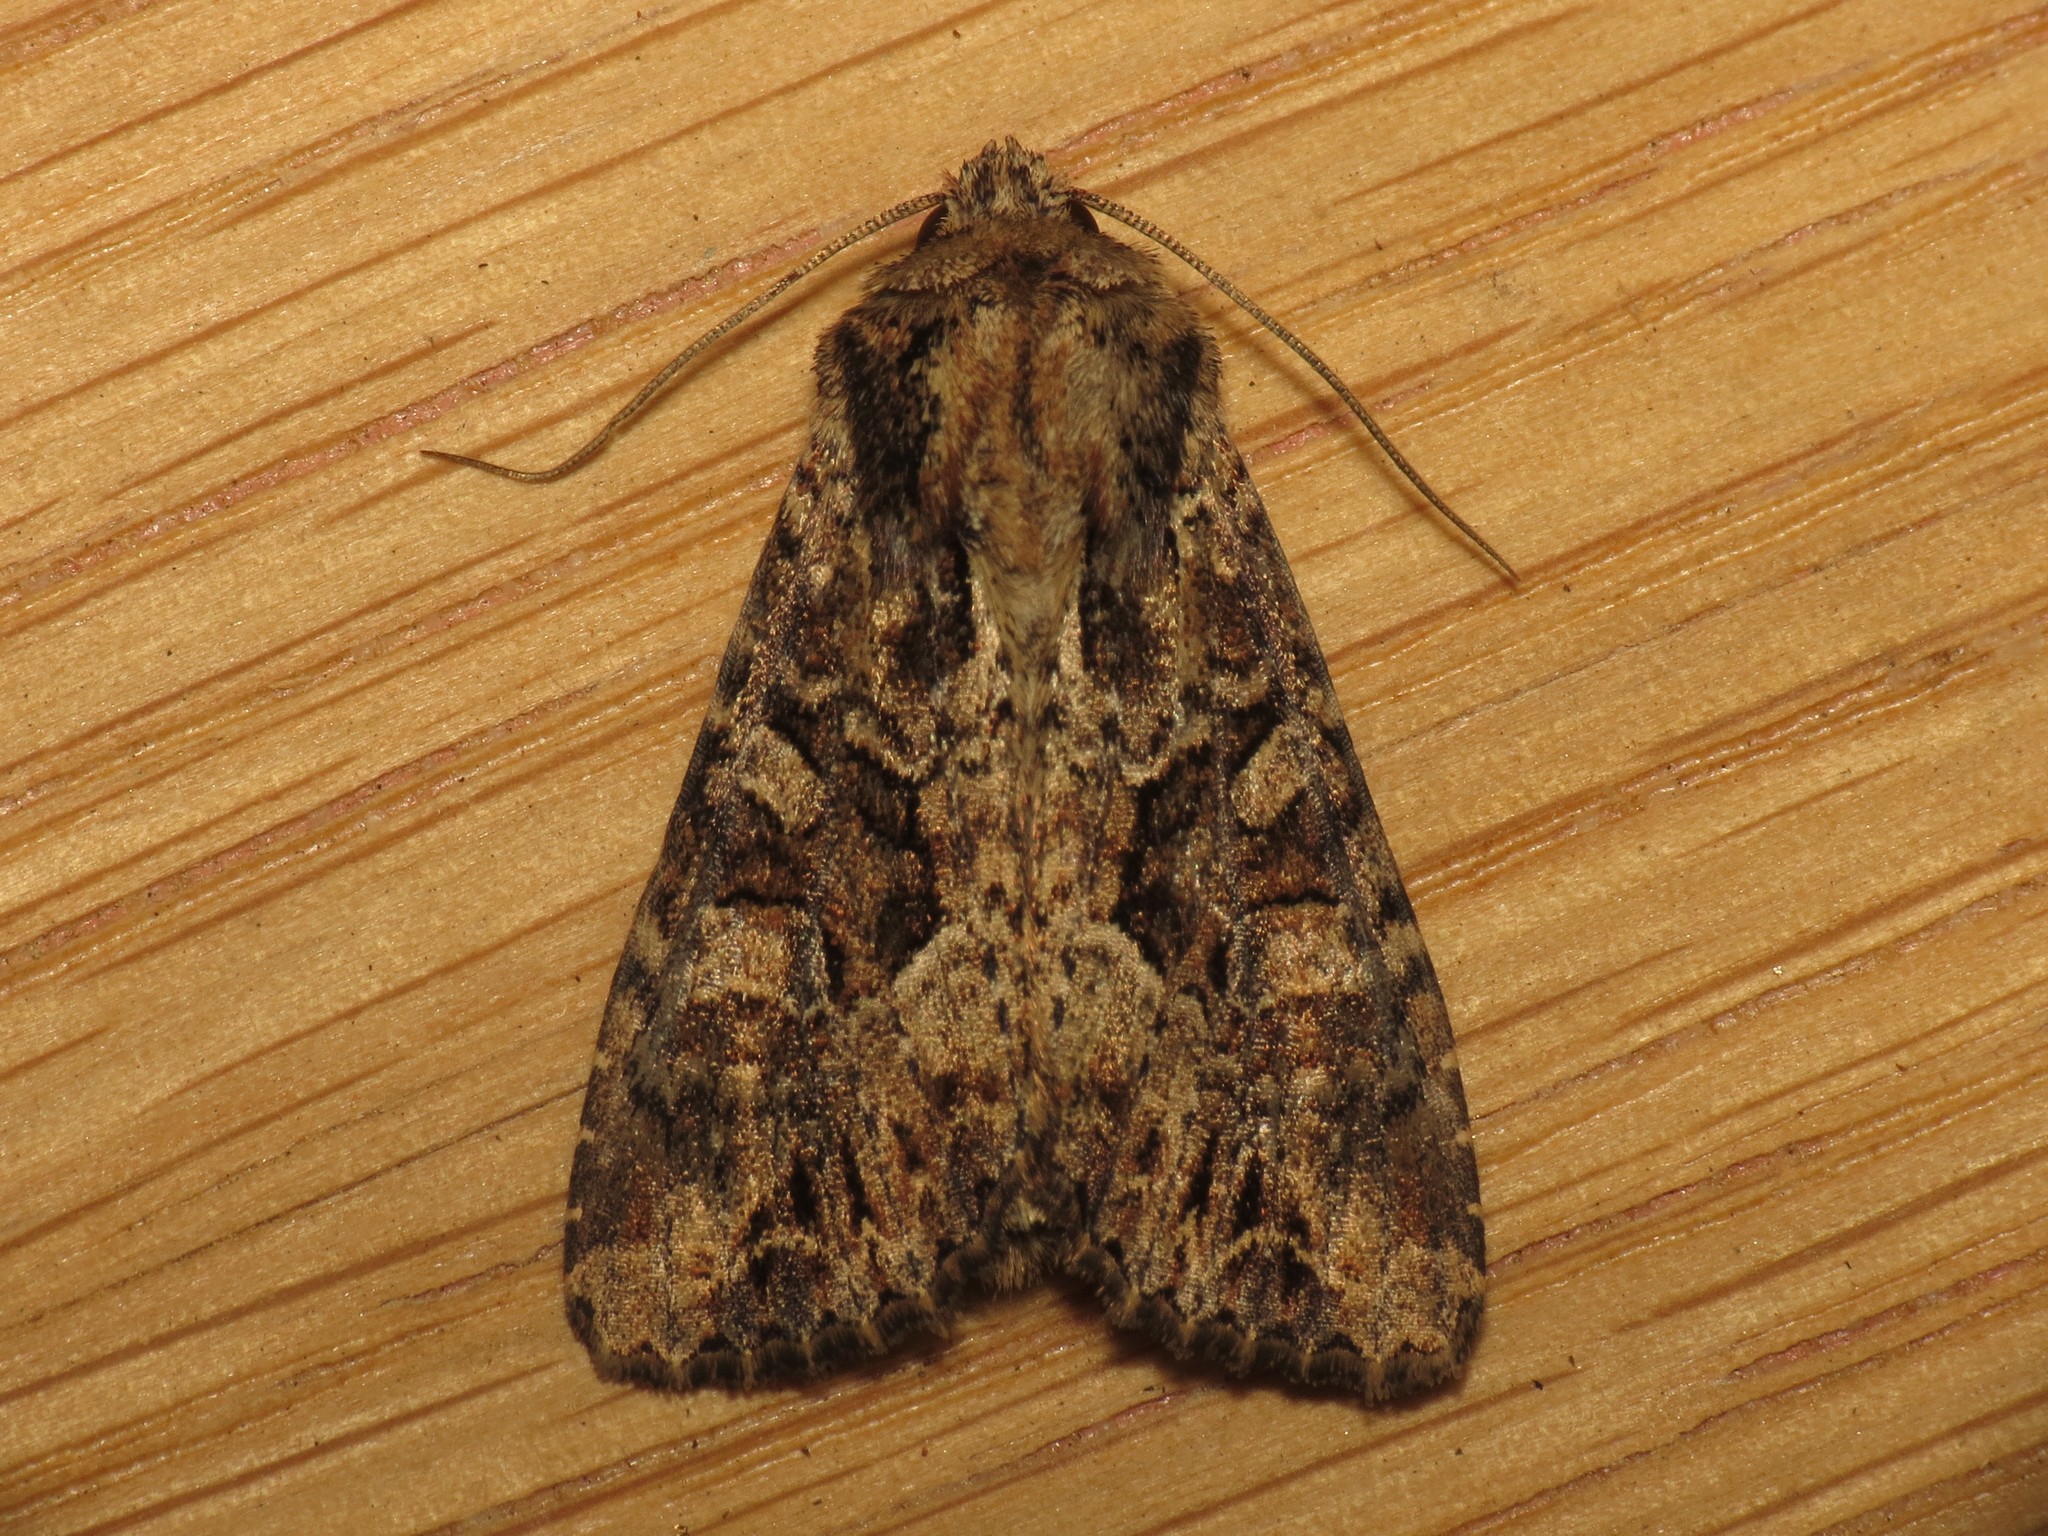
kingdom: Animalia
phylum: Arthropoda
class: Insecta
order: Lepidoptera
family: Noctuidae
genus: Apamea
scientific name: Apamea remissa
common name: Dusky brocade
